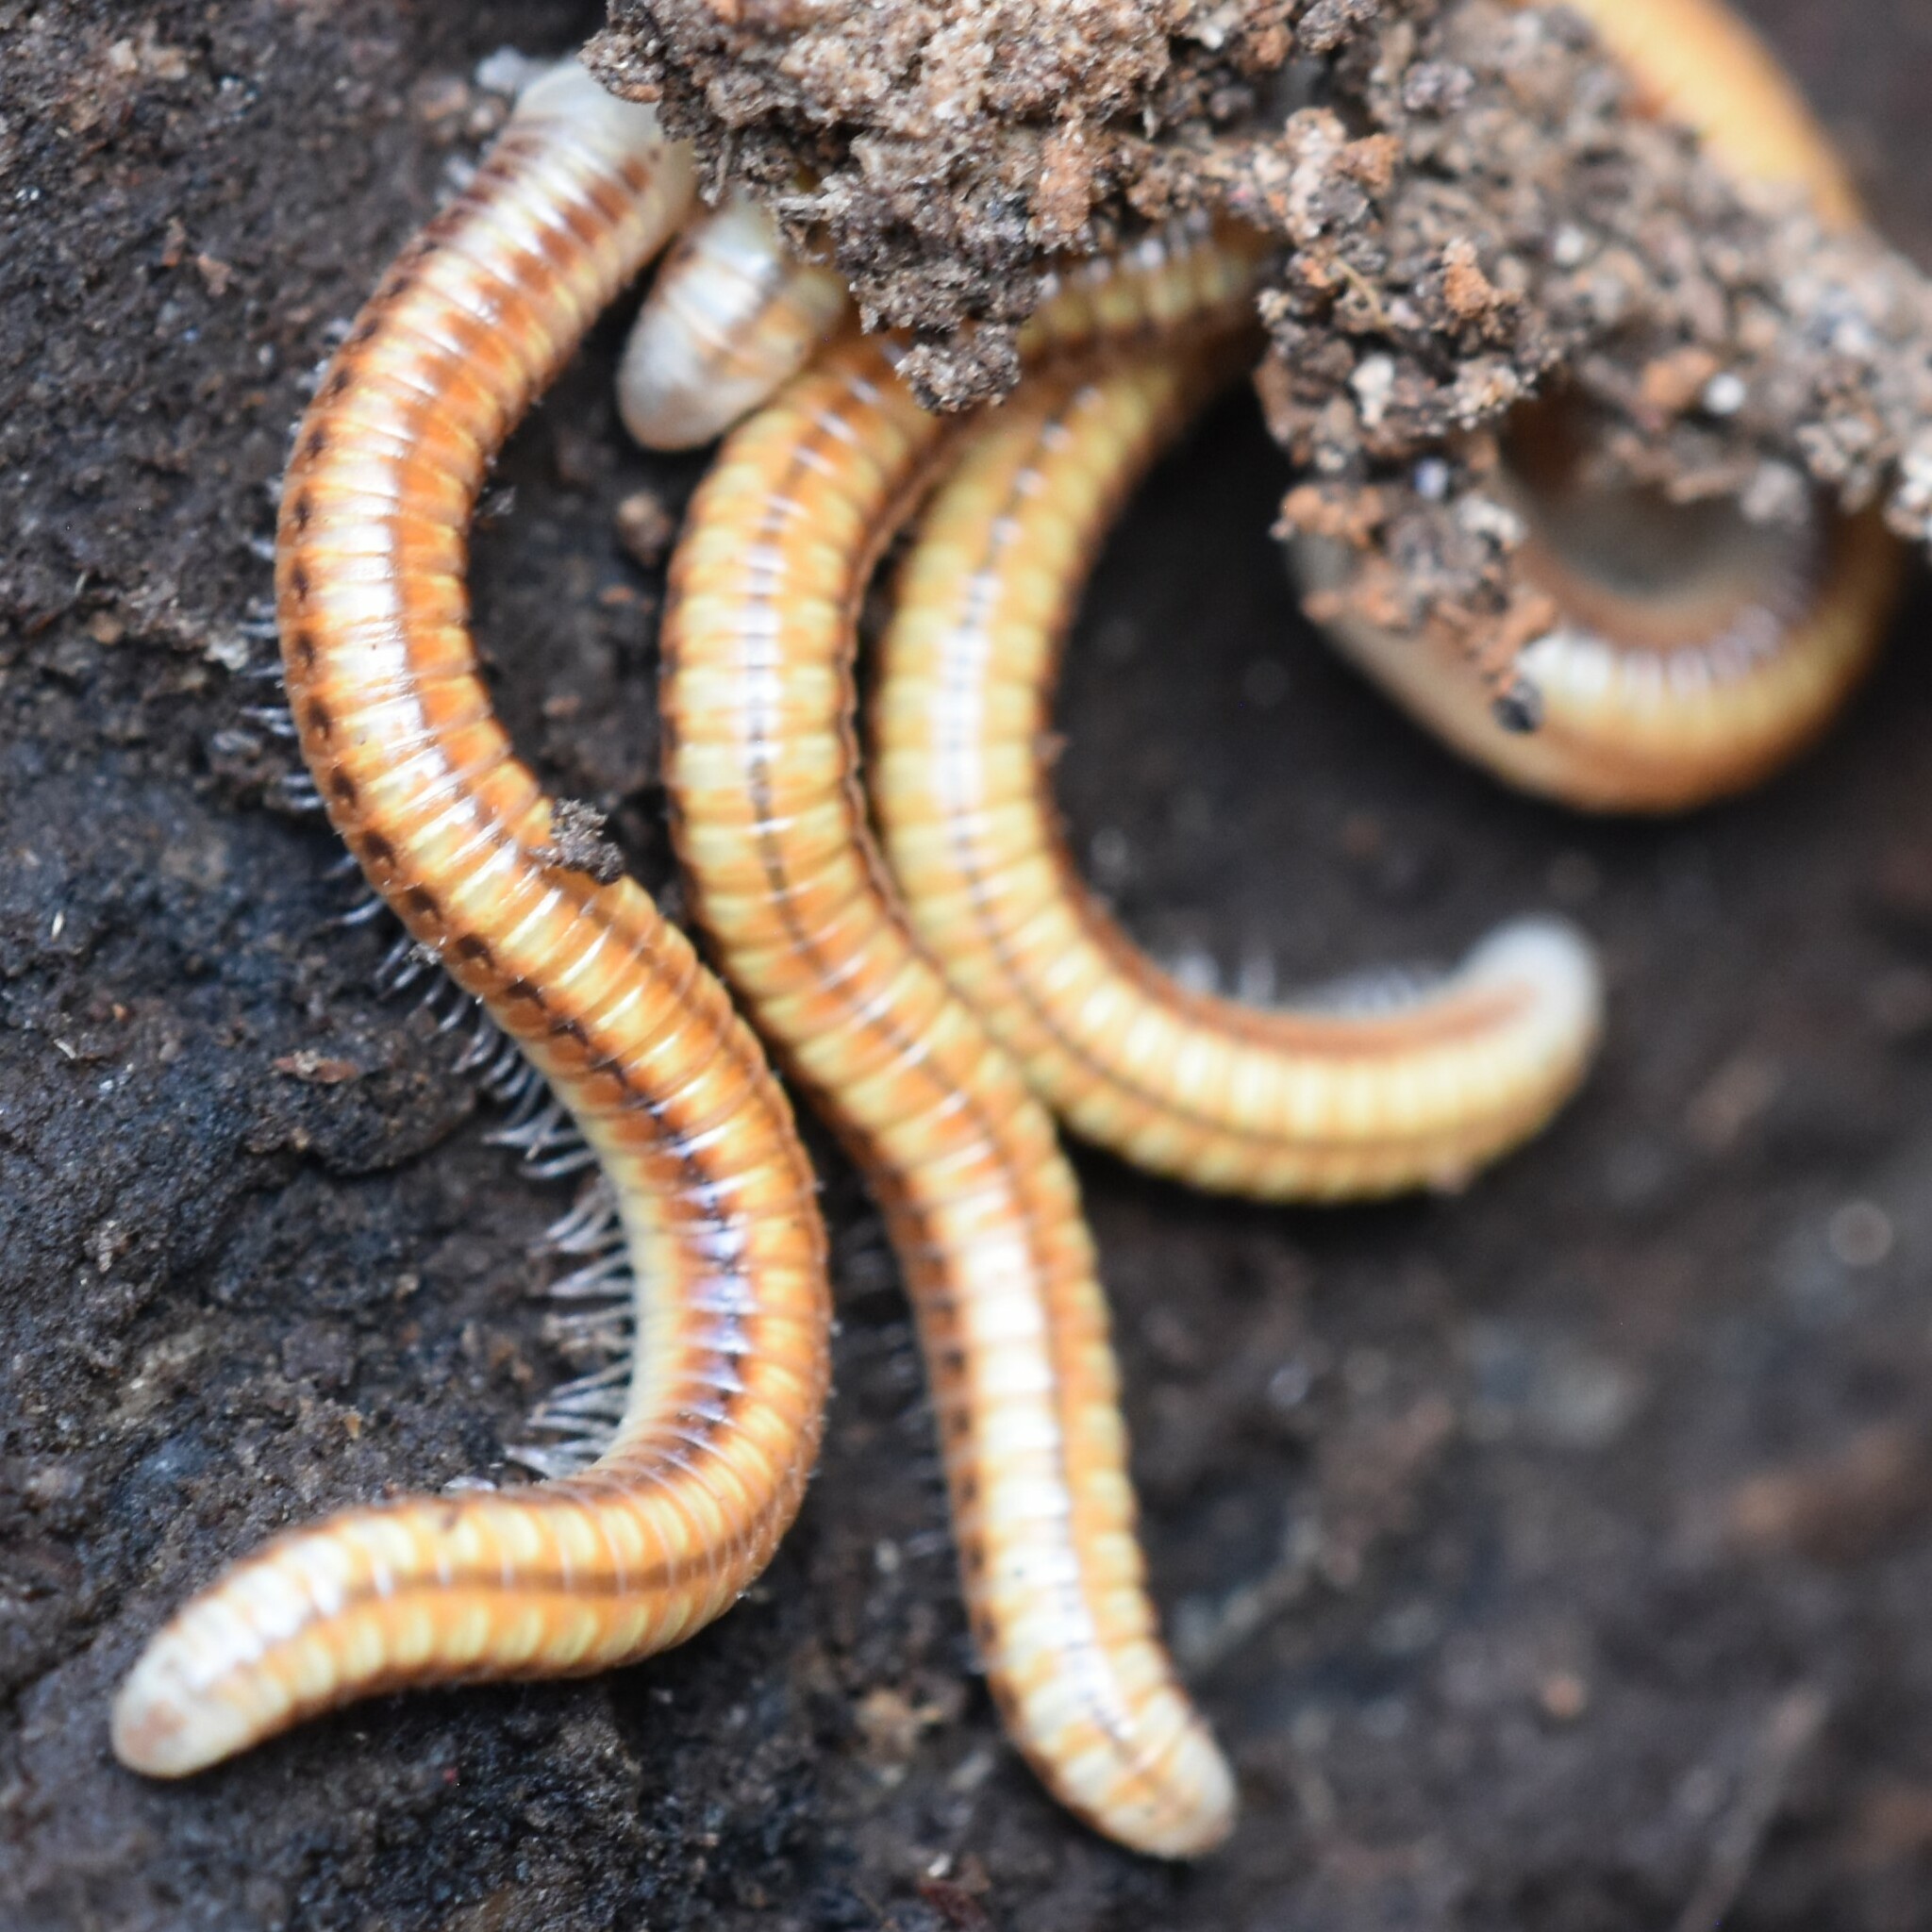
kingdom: Animalia
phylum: Arthropoda
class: Diplopoda
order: Spirobolida
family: Spirobolellidae
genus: Paraspirobolus
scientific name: Paraspirobolus lucifugus
